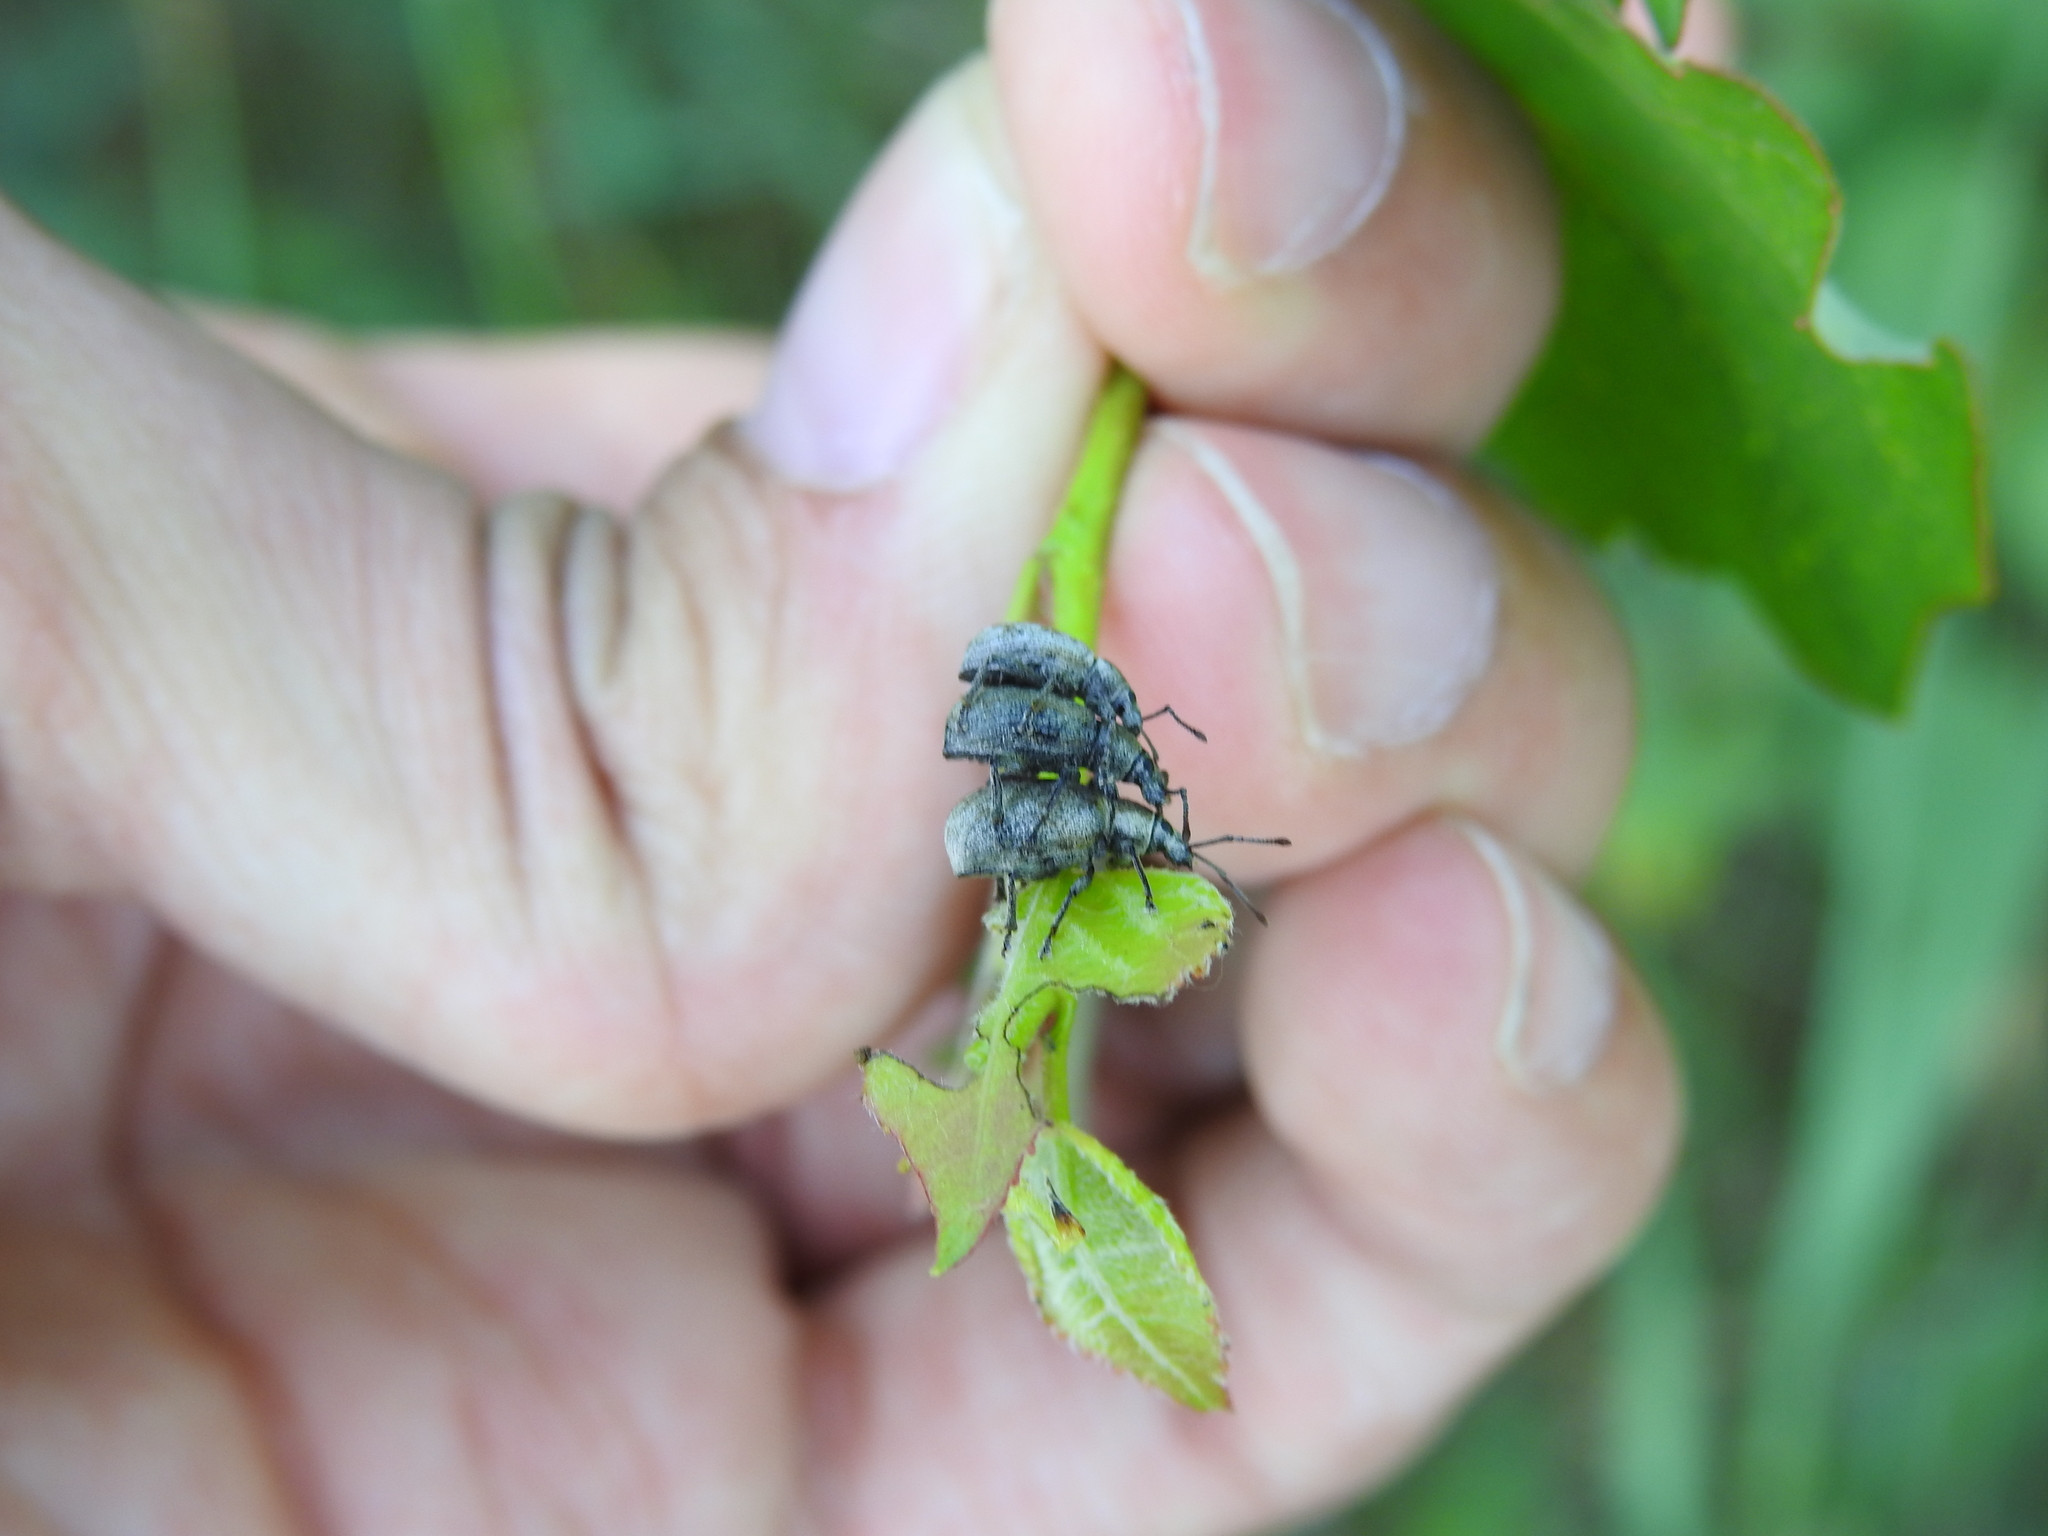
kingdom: Animalia
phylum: Arthropoda
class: Insecta
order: Coleoptera
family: Curculionidae
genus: Peritelus
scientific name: Peritelus sphaeroides
